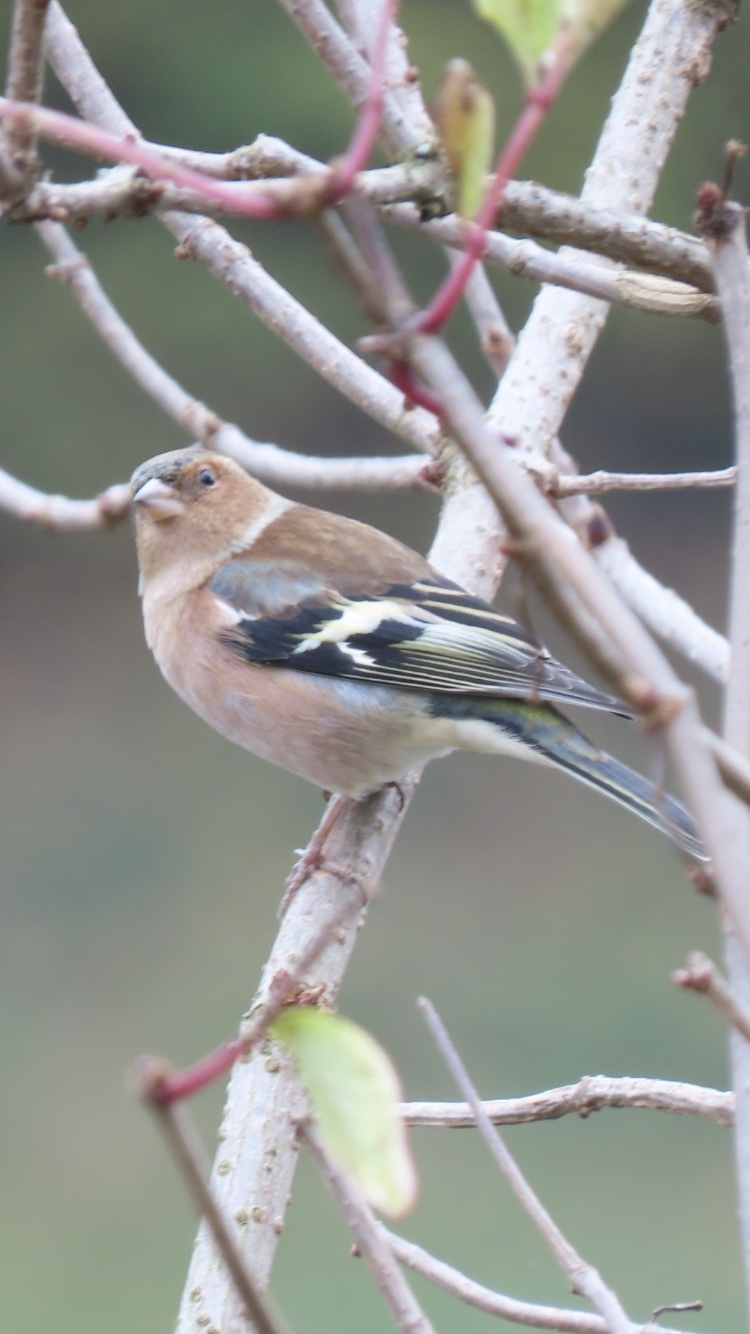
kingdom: Animalia
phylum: Chordata
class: Aves
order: Passeriformes
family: Fringillidae
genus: Fringilla
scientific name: Fringilla coelebs
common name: Common chaffinch
